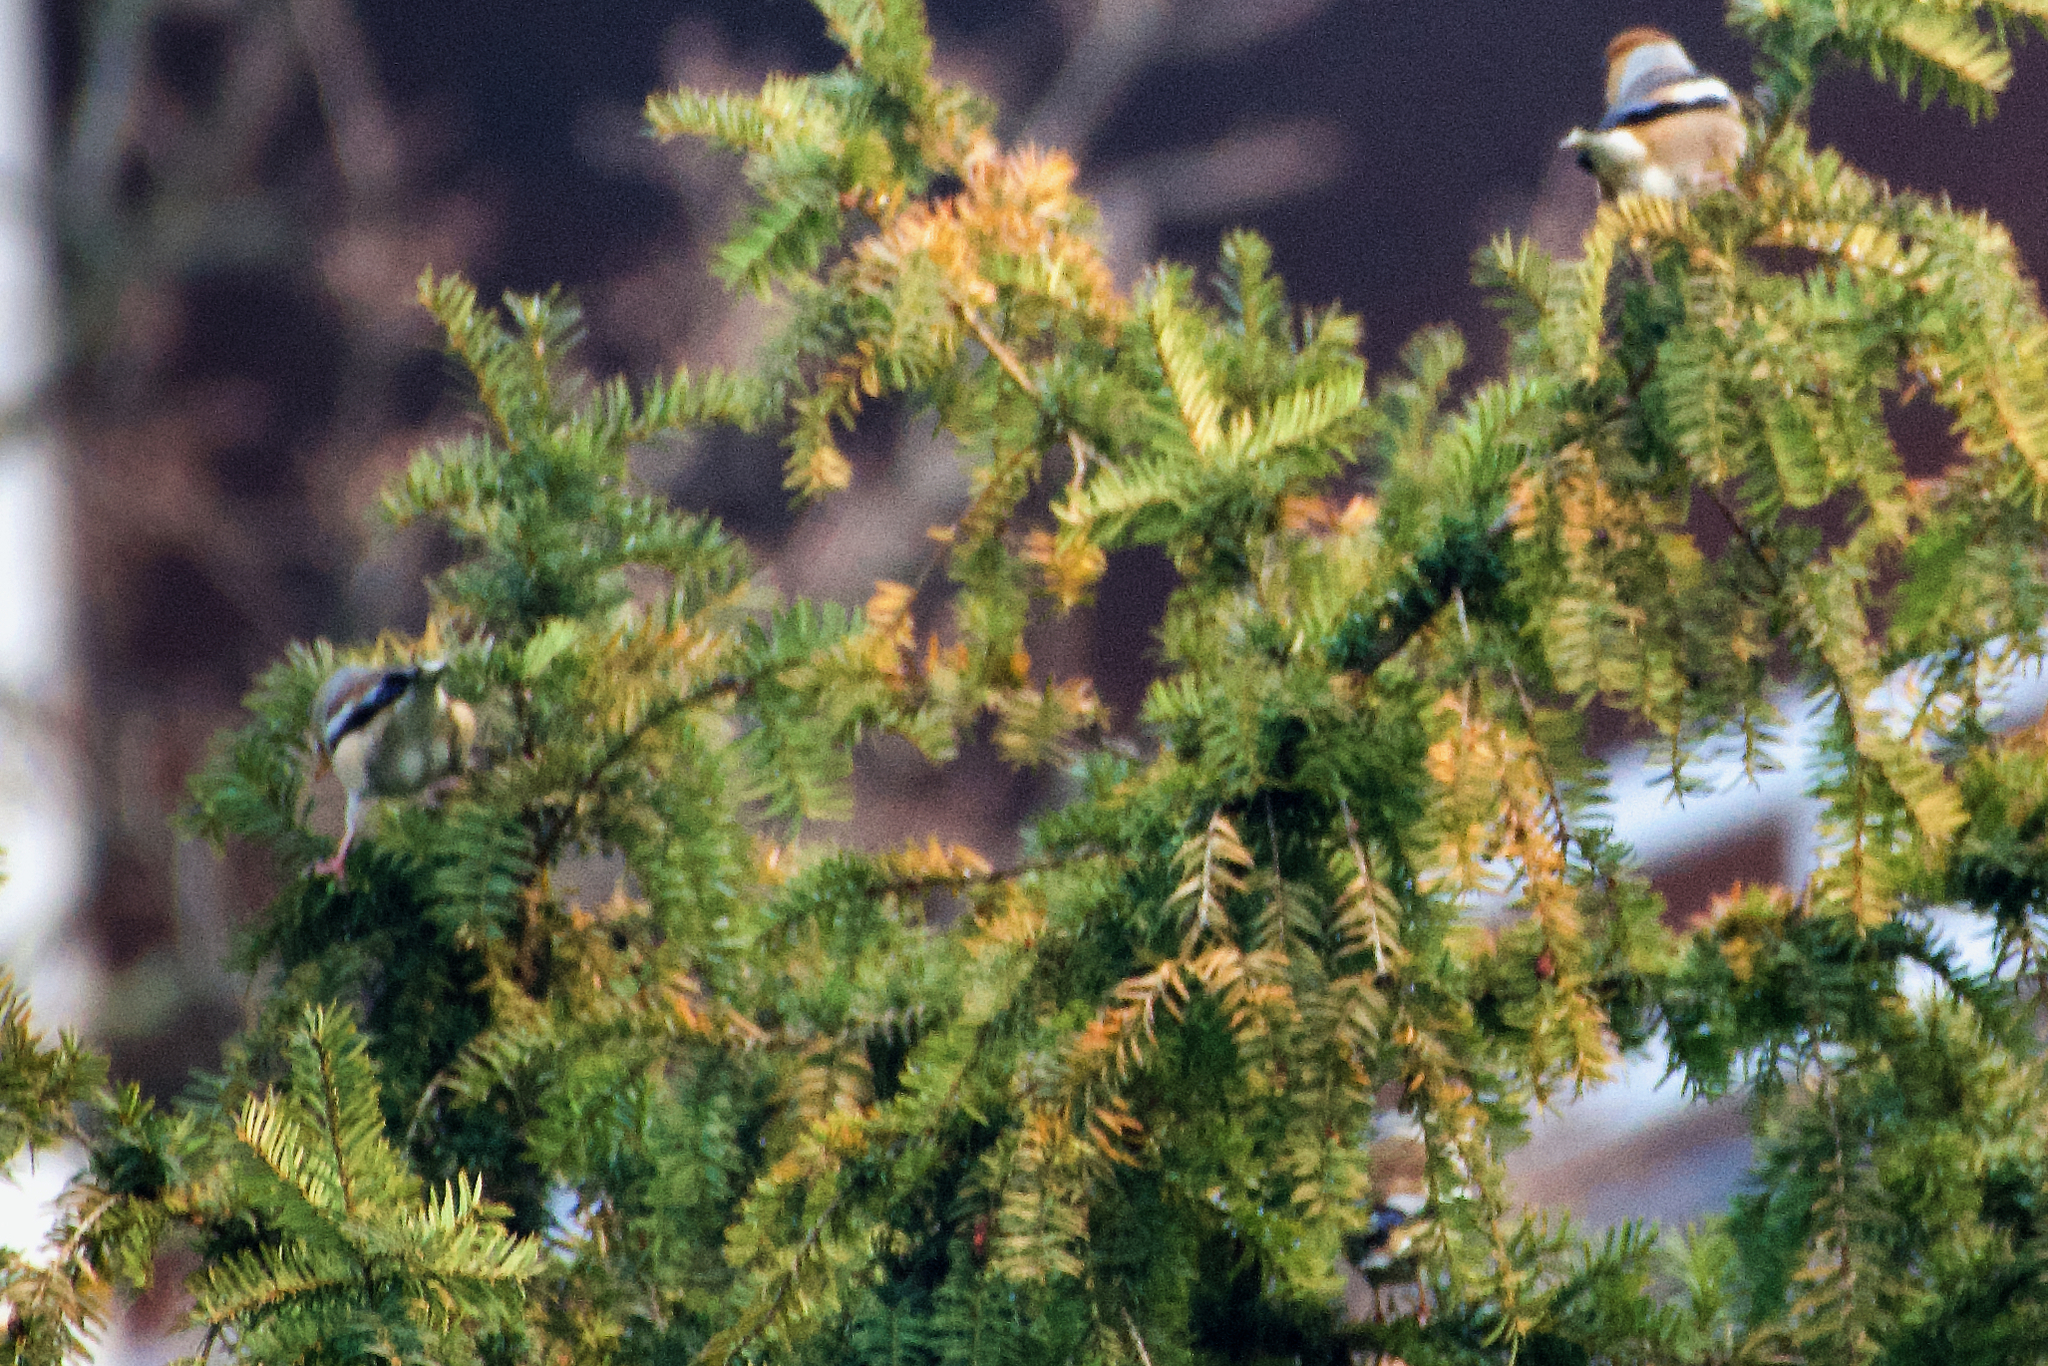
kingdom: Animalia
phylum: Chordata
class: Aves
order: Passeriformes
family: Fringillidae
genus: Coccothraustes
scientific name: Coccothraustes coccothraustes
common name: Hawfinch
